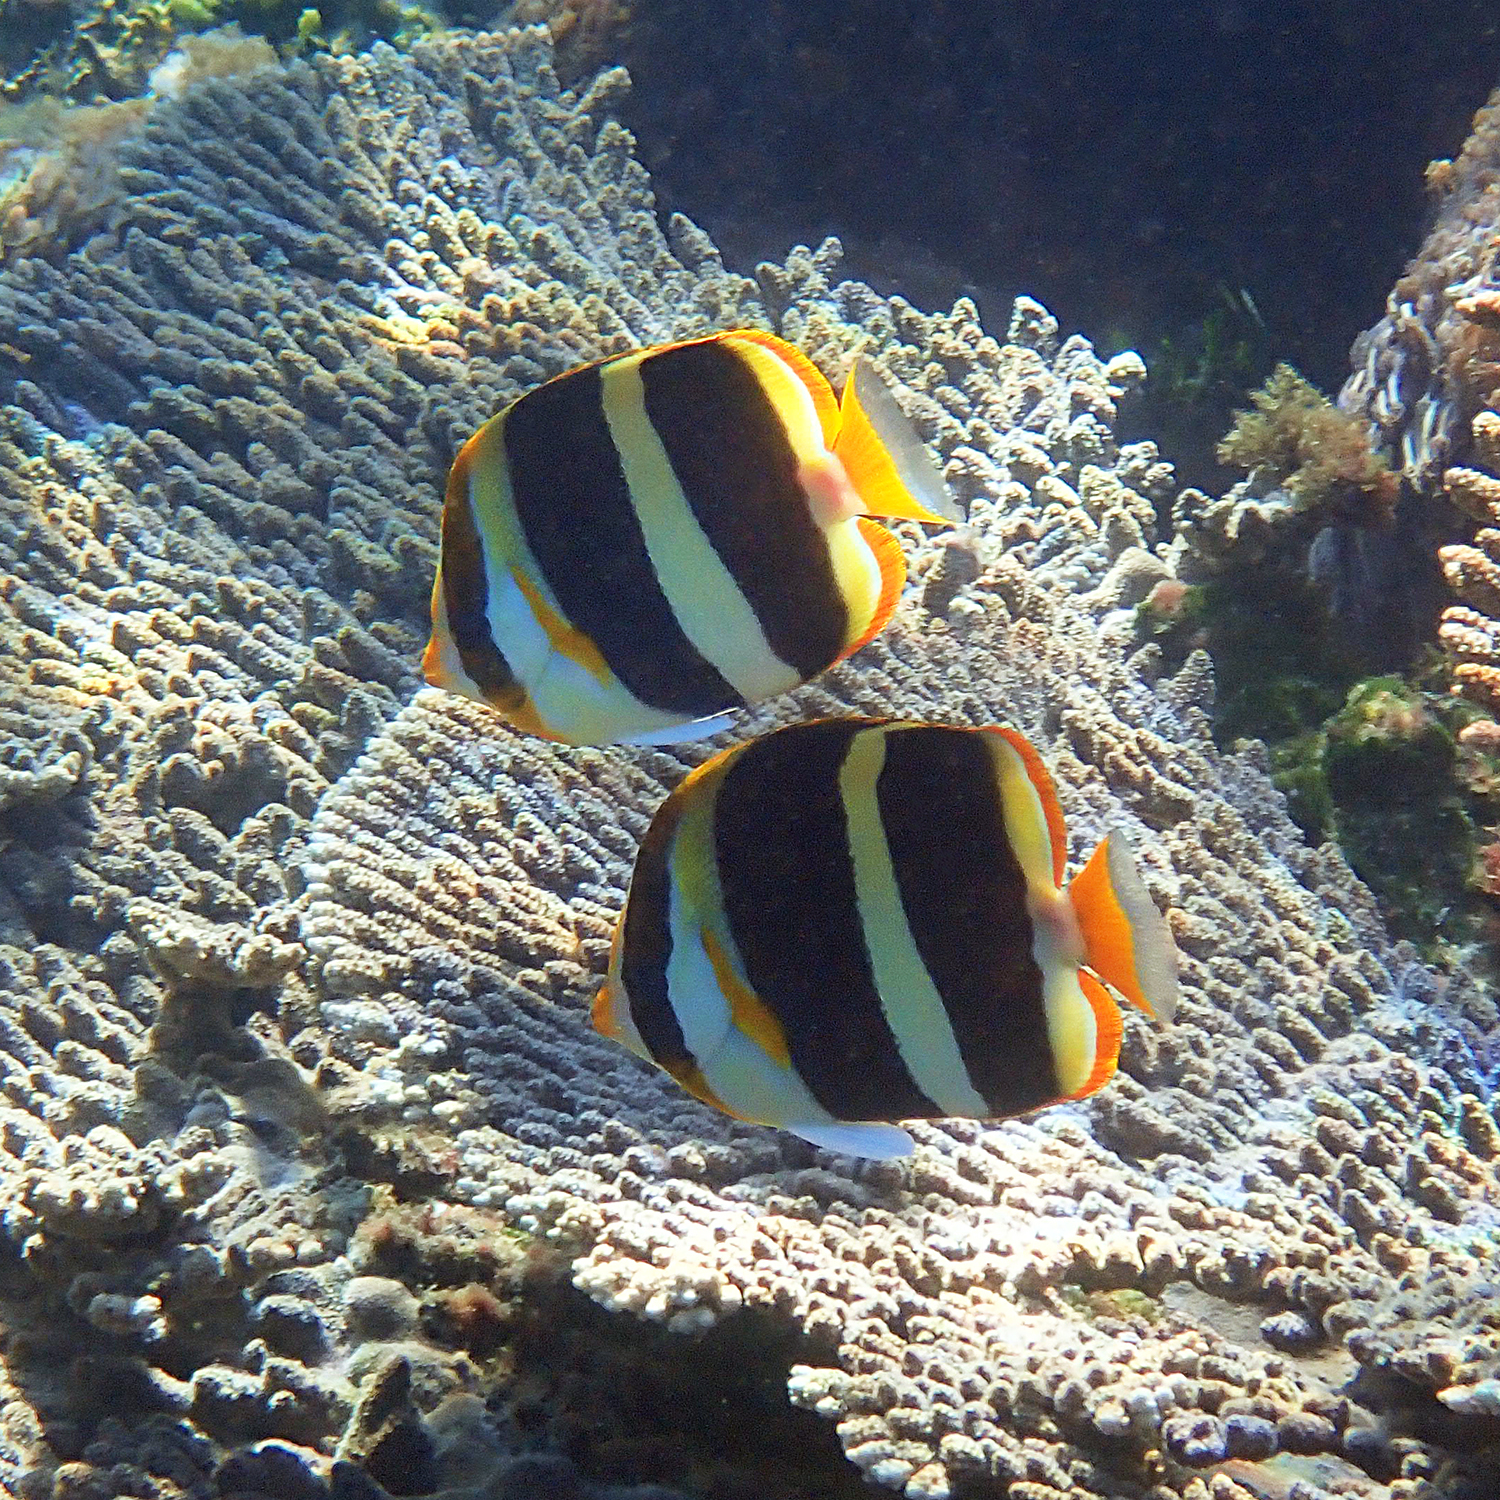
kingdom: Animalia
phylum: Chordata
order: Perciformes
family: Chaetodontidae
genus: Chaetodon
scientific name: Chaetodon tricinctus
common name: Three-striped butterflyfish
